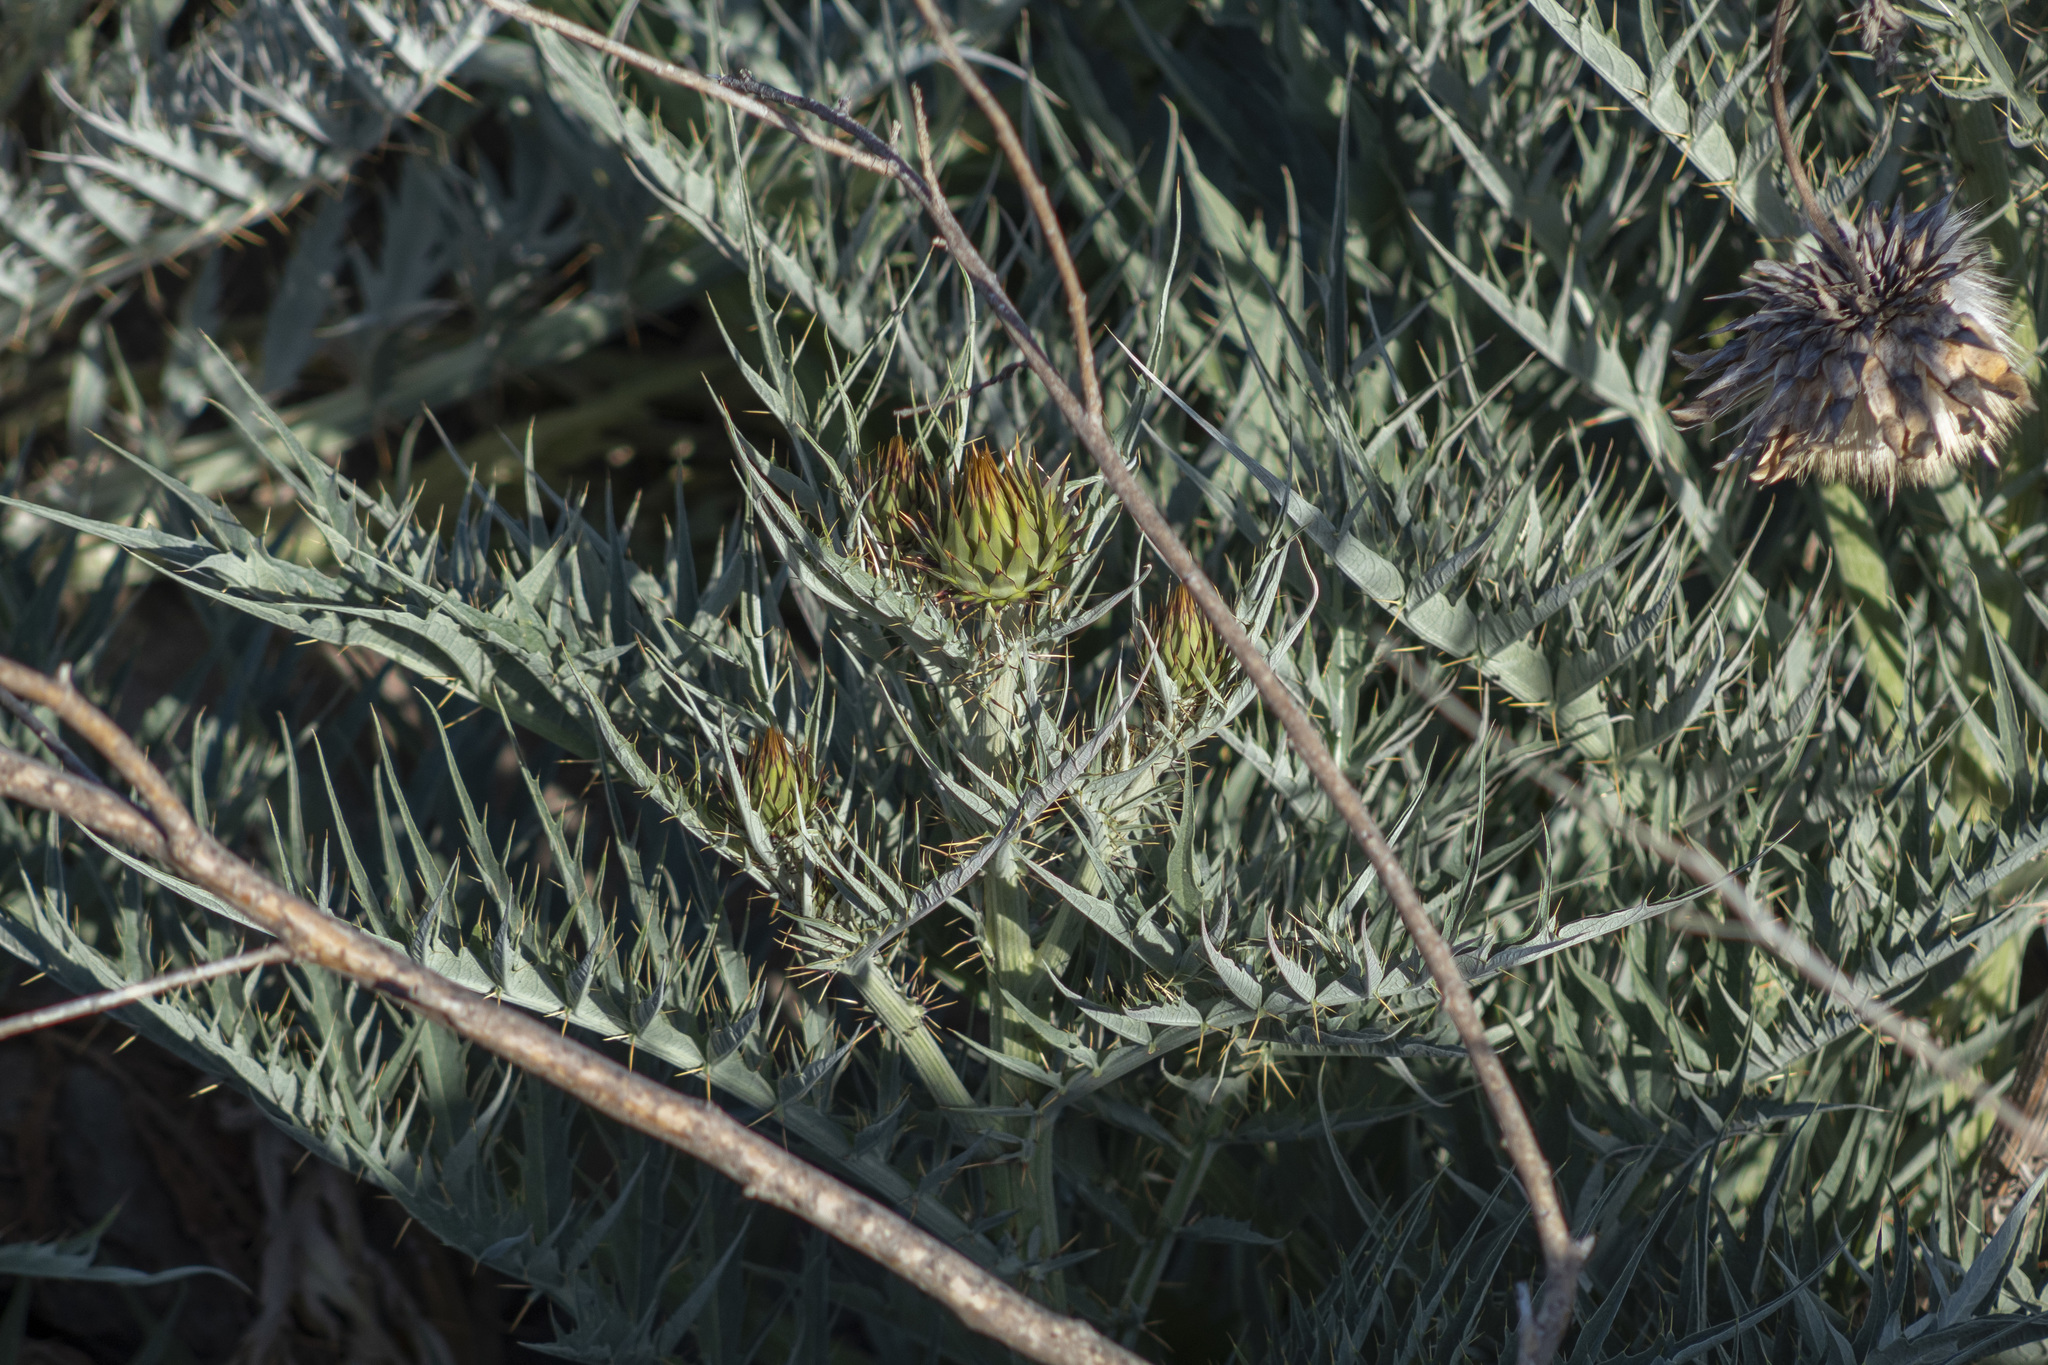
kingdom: Plantae
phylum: Tracheophyta
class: Magnoliopsida
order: Asterales
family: Asteraceae
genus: Cynara
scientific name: Cynara cardunculus
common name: Globe artichoke
